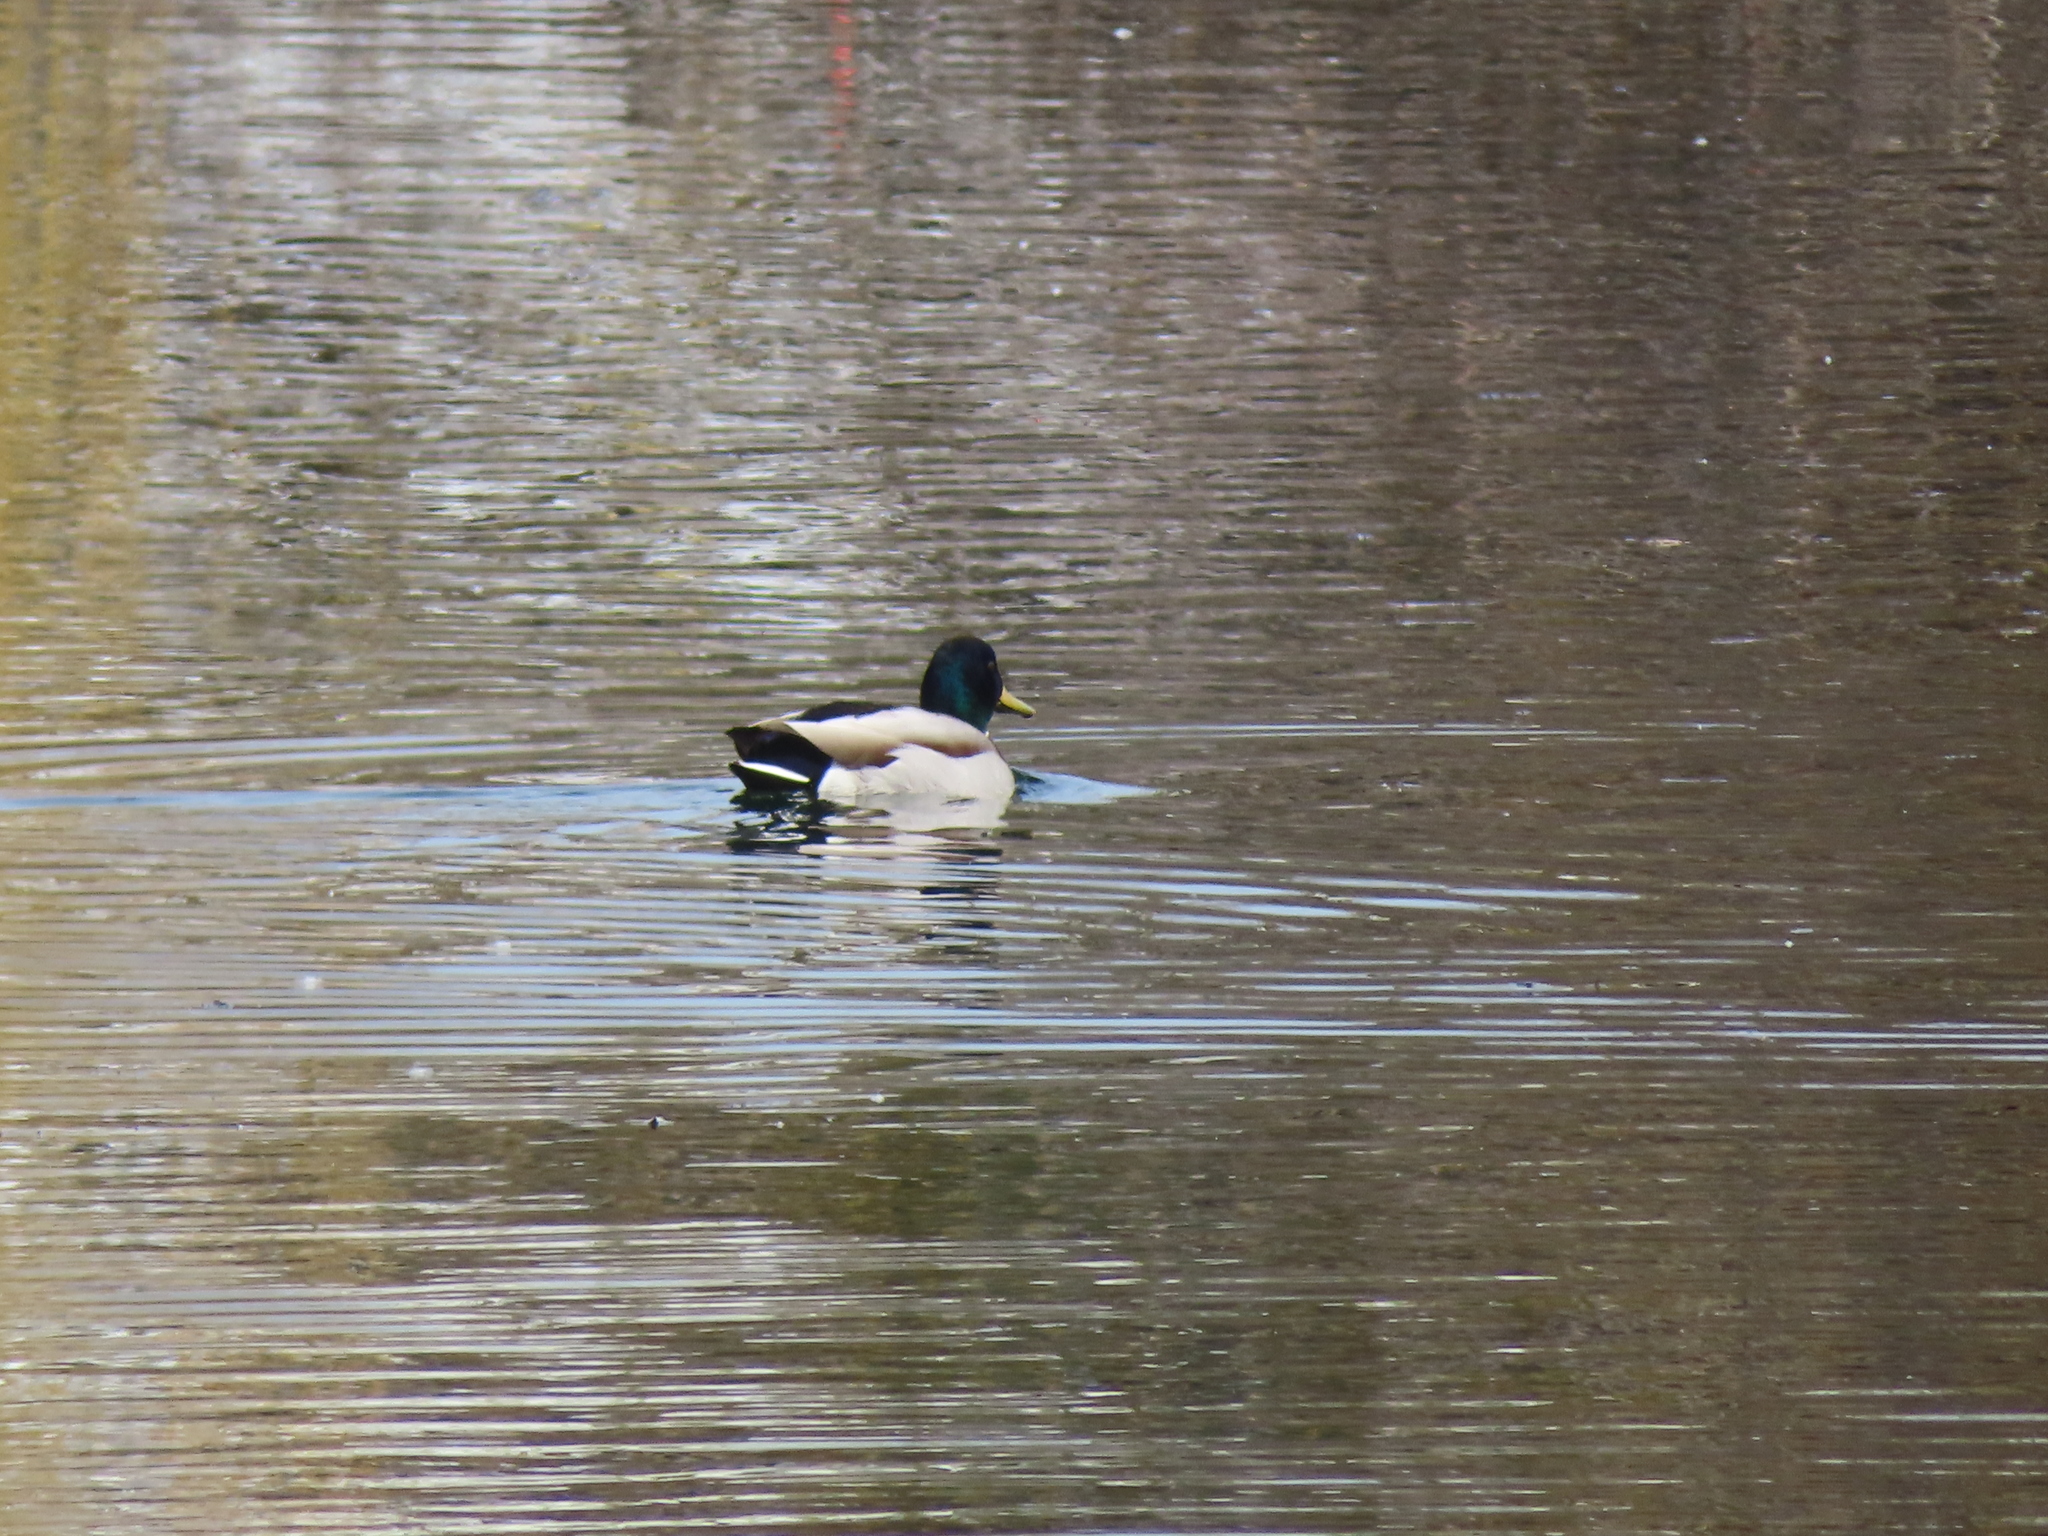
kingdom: Animalia
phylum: Chordata
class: Aves
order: Anseriformes
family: Anatidae
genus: Anas
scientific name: Anas platyrhynchos
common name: Mallard
